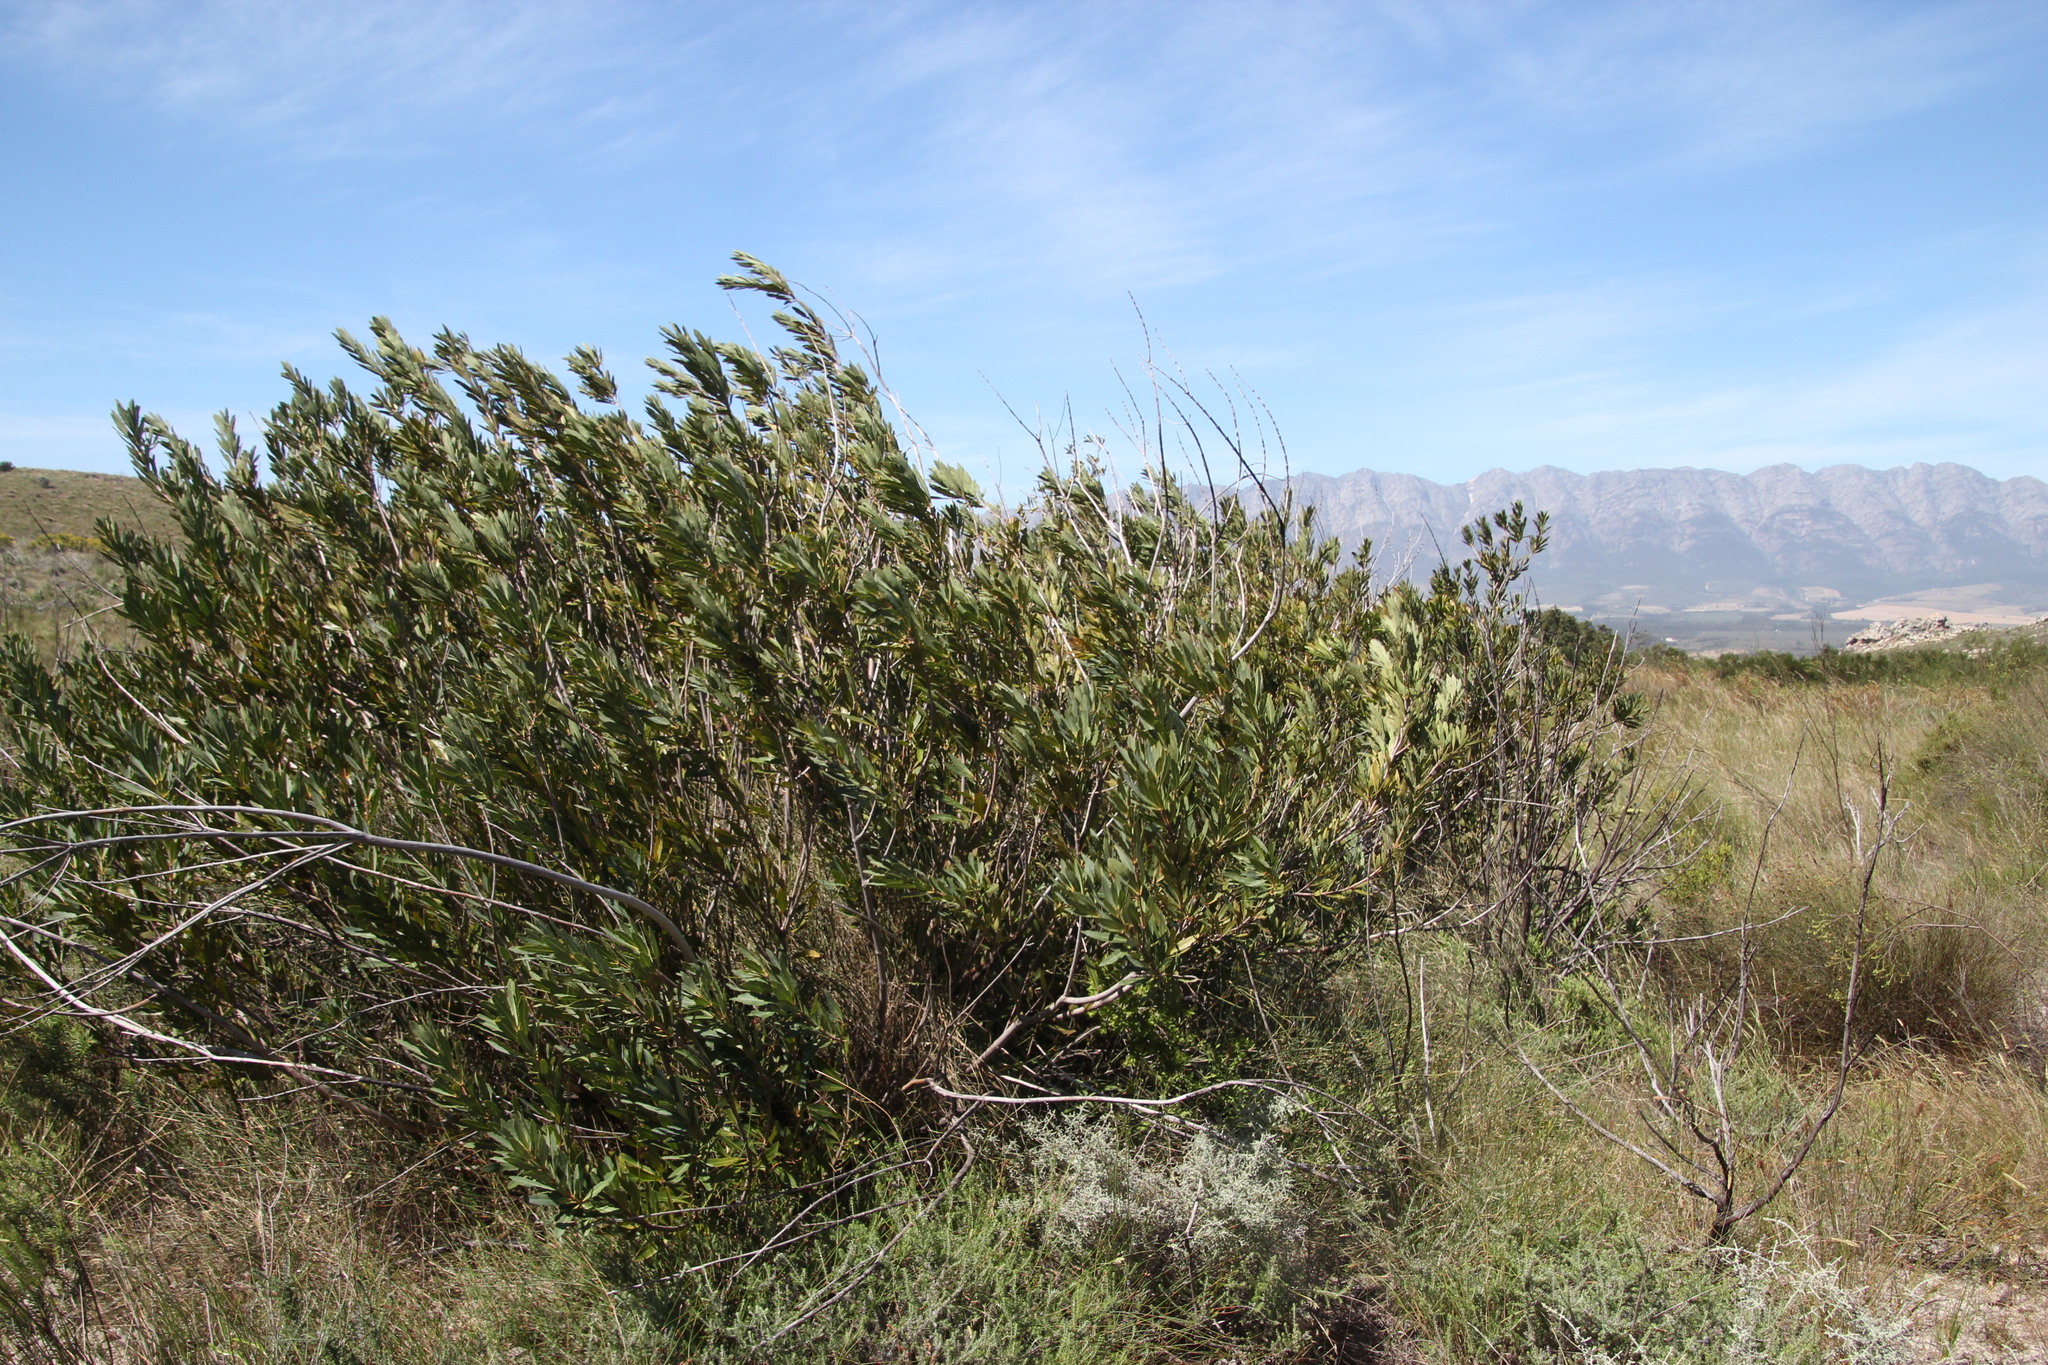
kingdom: Plantae
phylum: Tracheophyta
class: Magnoliopsida
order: Proteales
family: Proteaceae
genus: Brabejum
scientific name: Brabejum stellatifolium
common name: Wild almond
